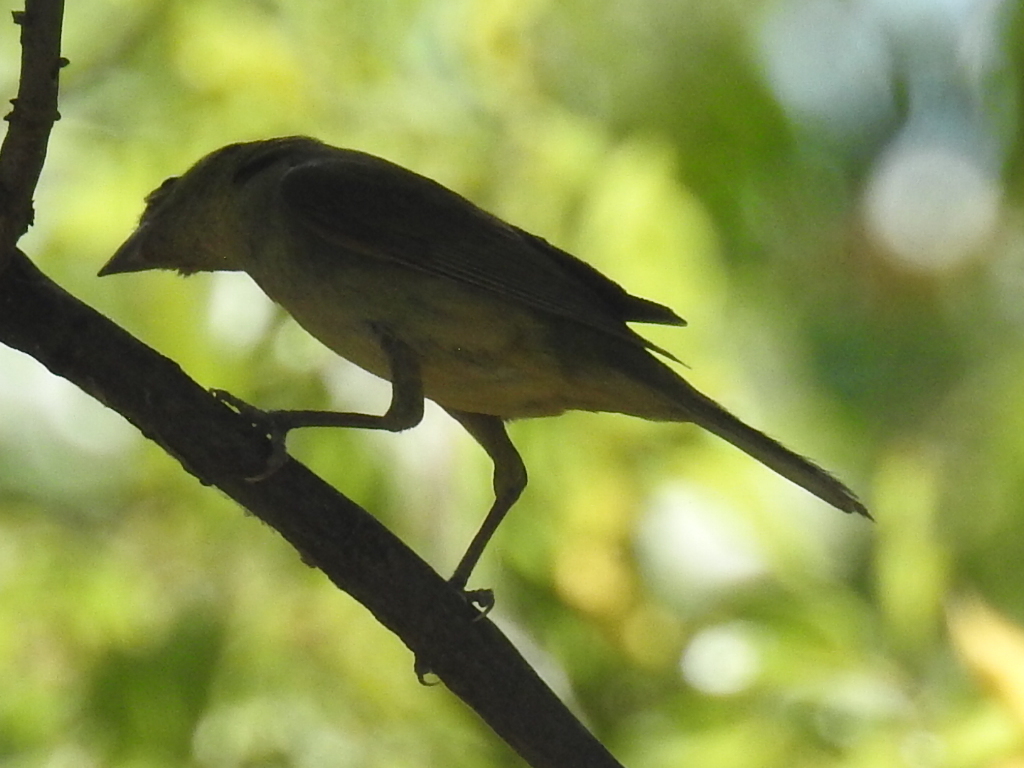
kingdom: Animalia
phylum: Chordata
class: Aves
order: Passeriformes
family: Cardinalidae
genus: Passerina
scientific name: Passerina ciris
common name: Painted bunting
